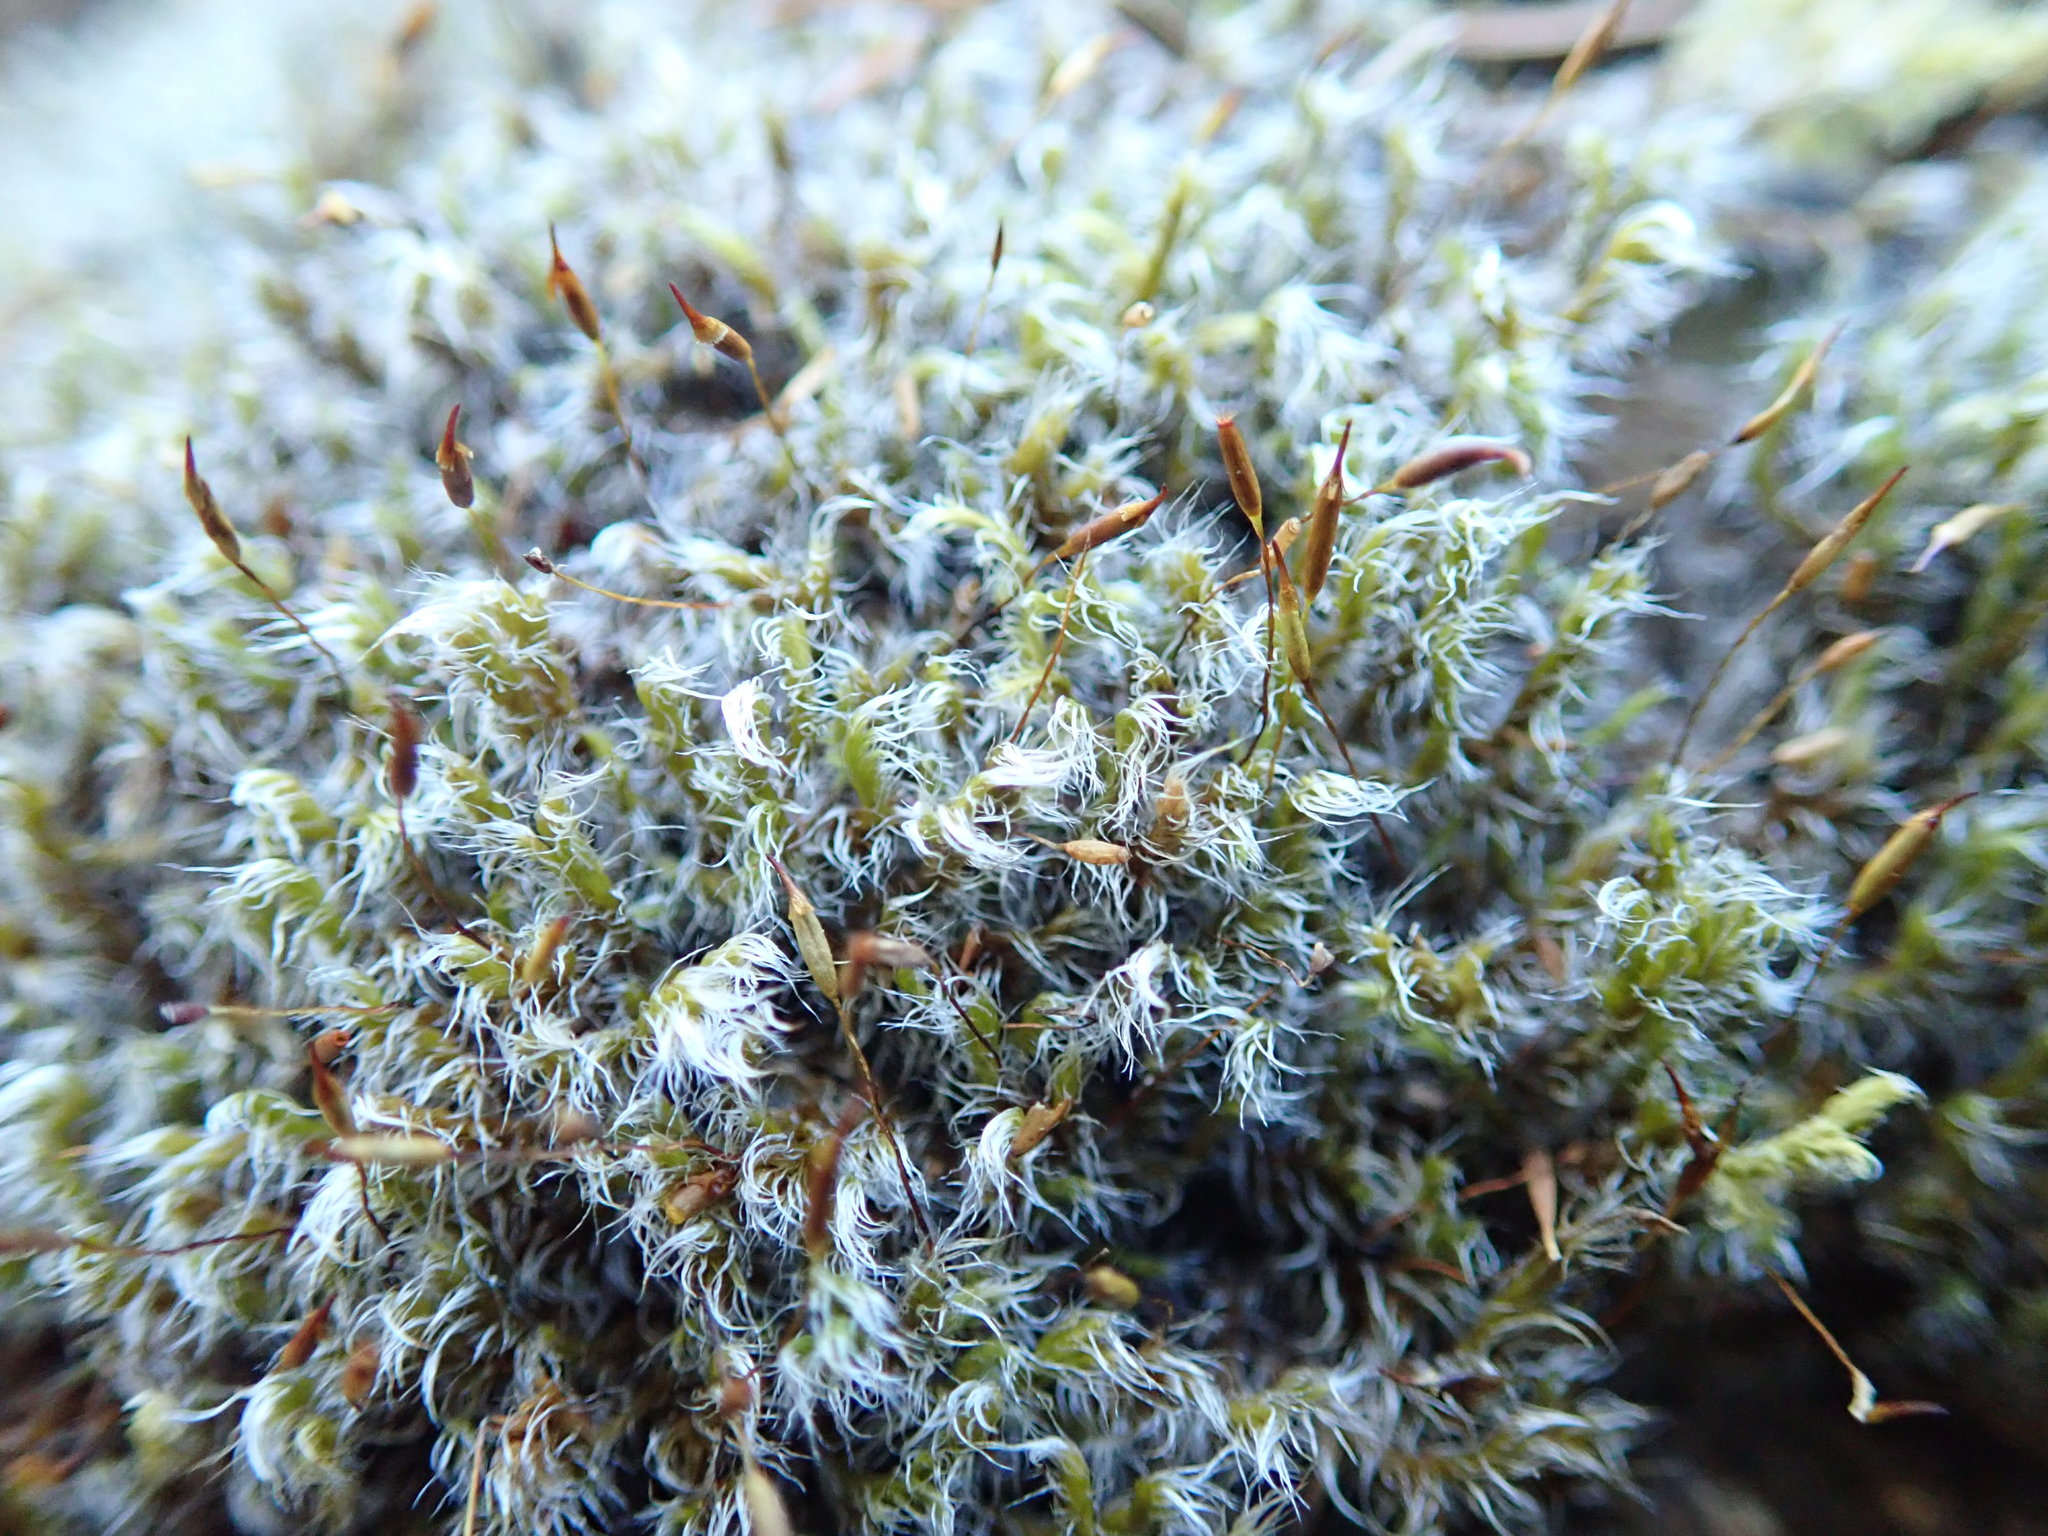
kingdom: Plantae
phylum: Bryophyta
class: Bryopsida
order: Grimmiales
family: Grimmiaceae
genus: Racomitrium
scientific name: Racomitrium lanuginosum
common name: Hoary rock moss
